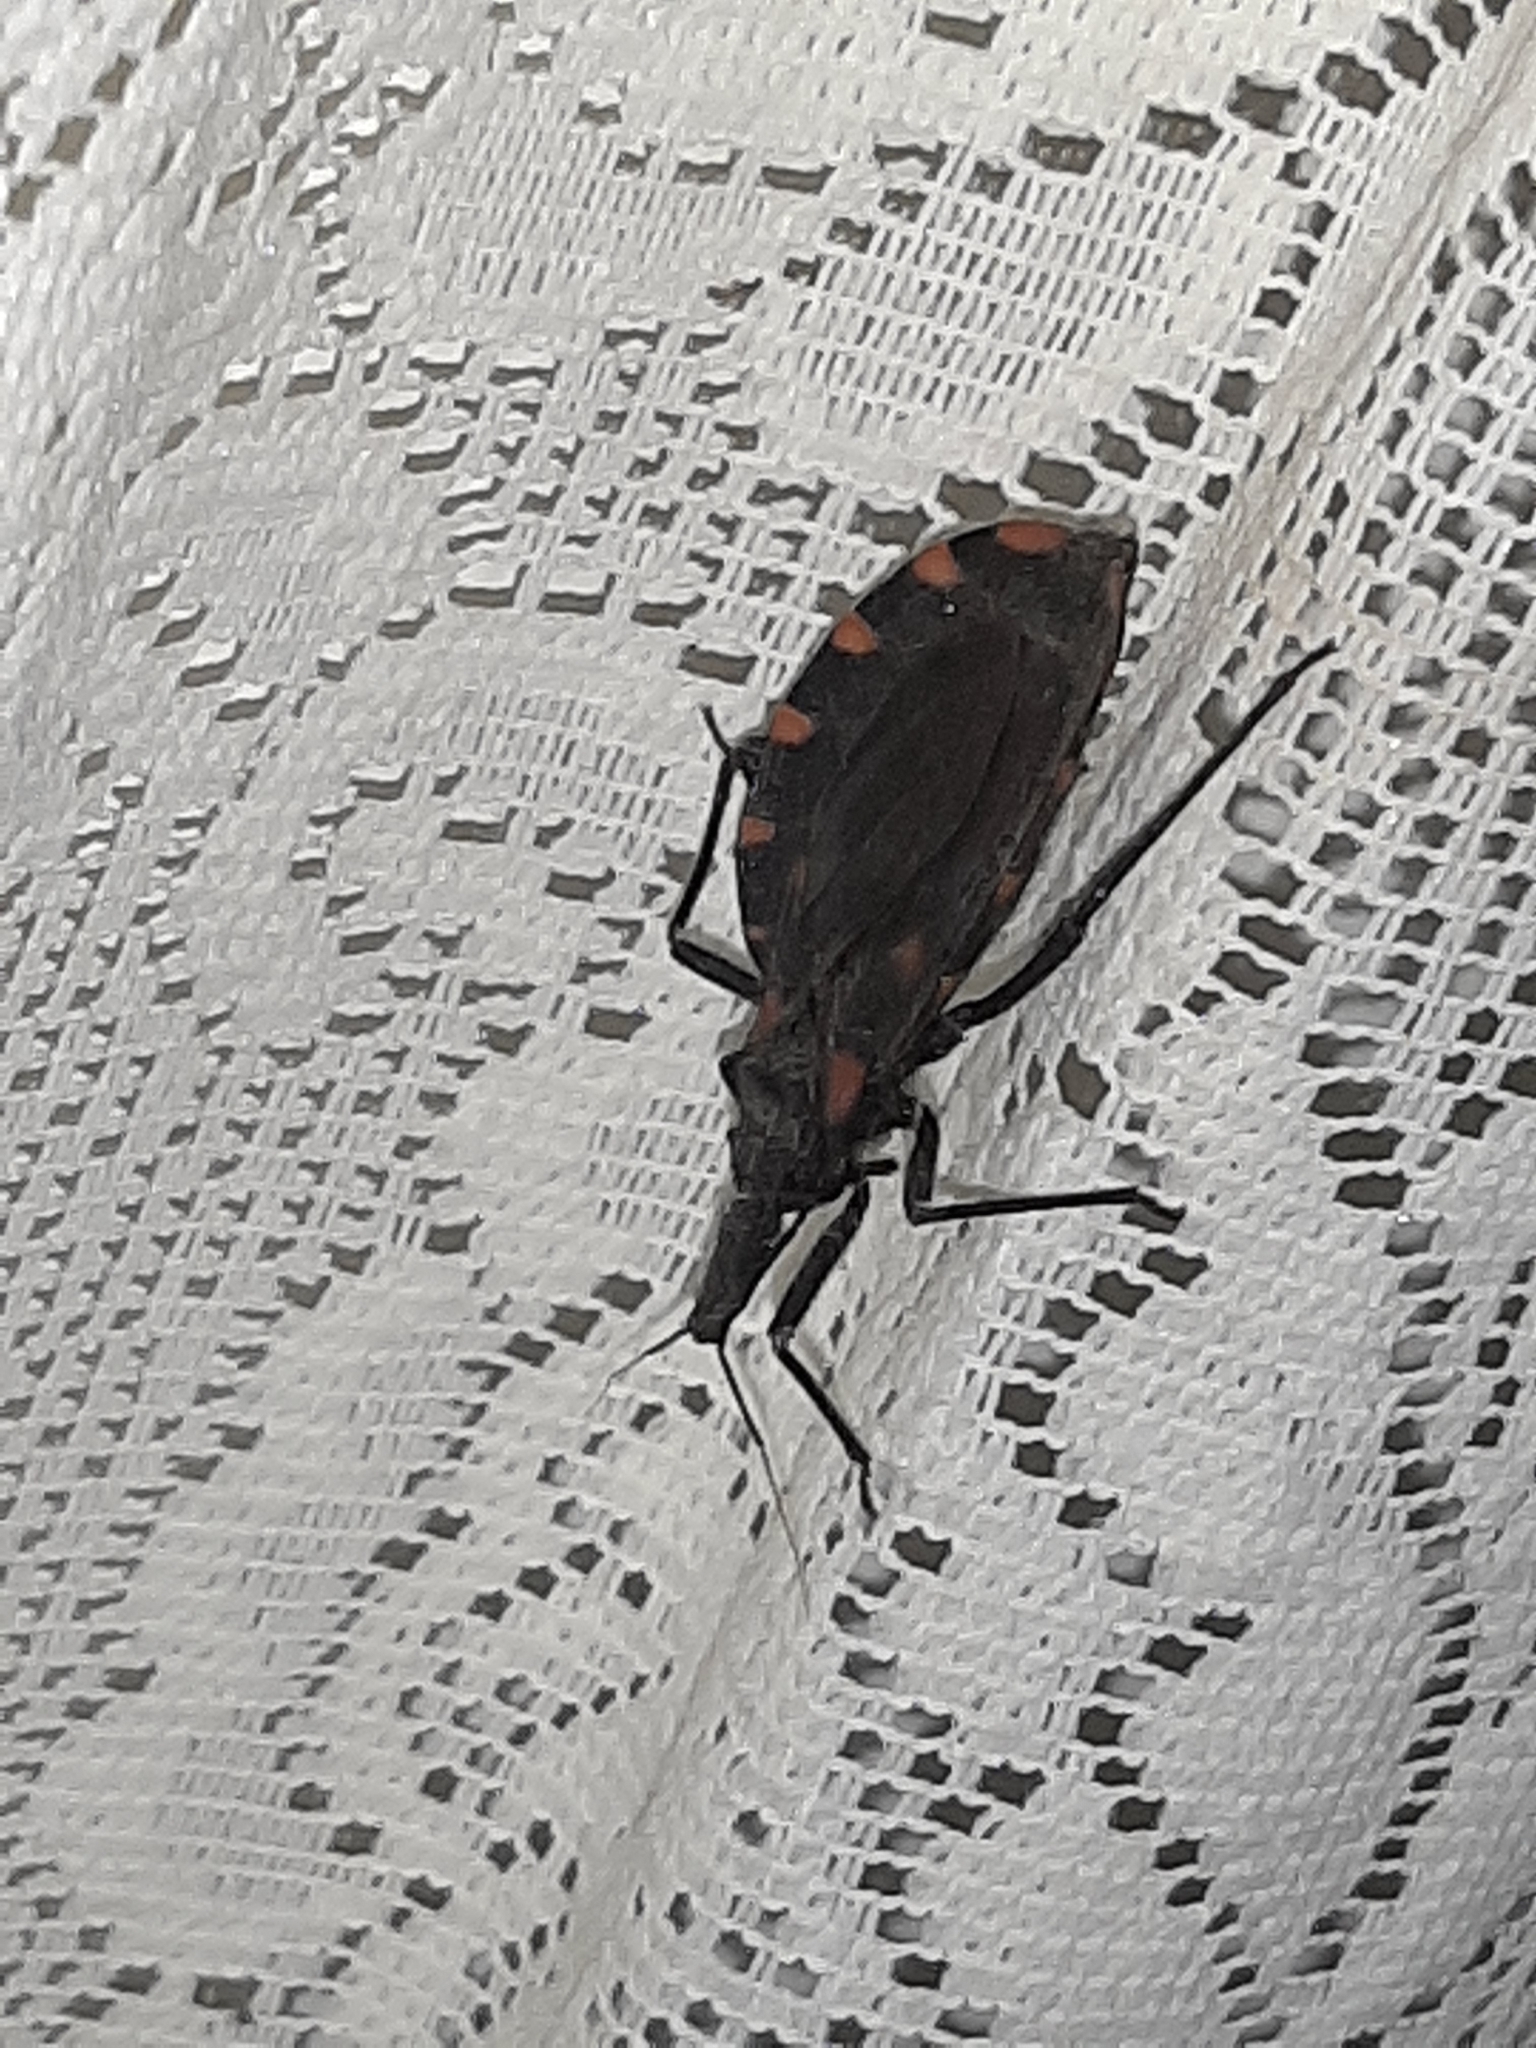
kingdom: Animalia
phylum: Arthropoda
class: Insecta
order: Hemiptera
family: Reduviidae
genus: Meccus
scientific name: Meccus longipennis
